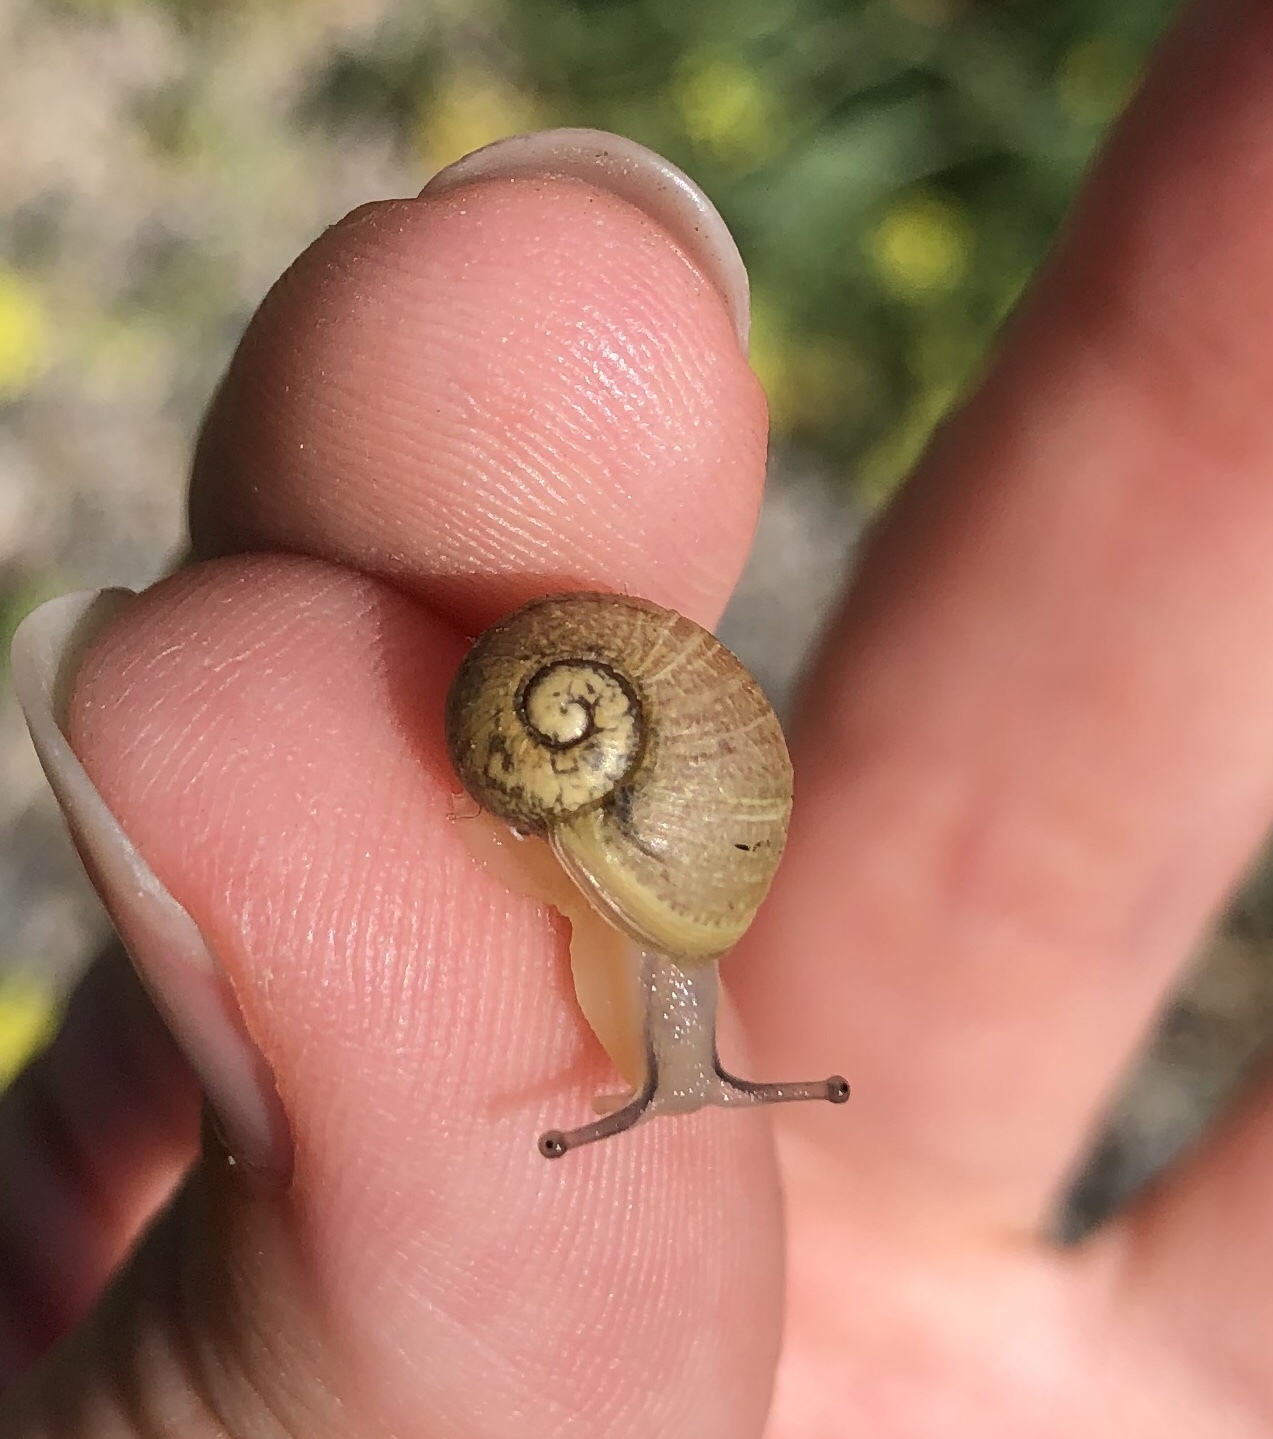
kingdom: Animalia
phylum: Mollusca
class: Gastropoda
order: Stylommatophora
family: Helicidae
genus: Cantareus
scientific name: Cantareus apertus
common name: Green gardensnail
